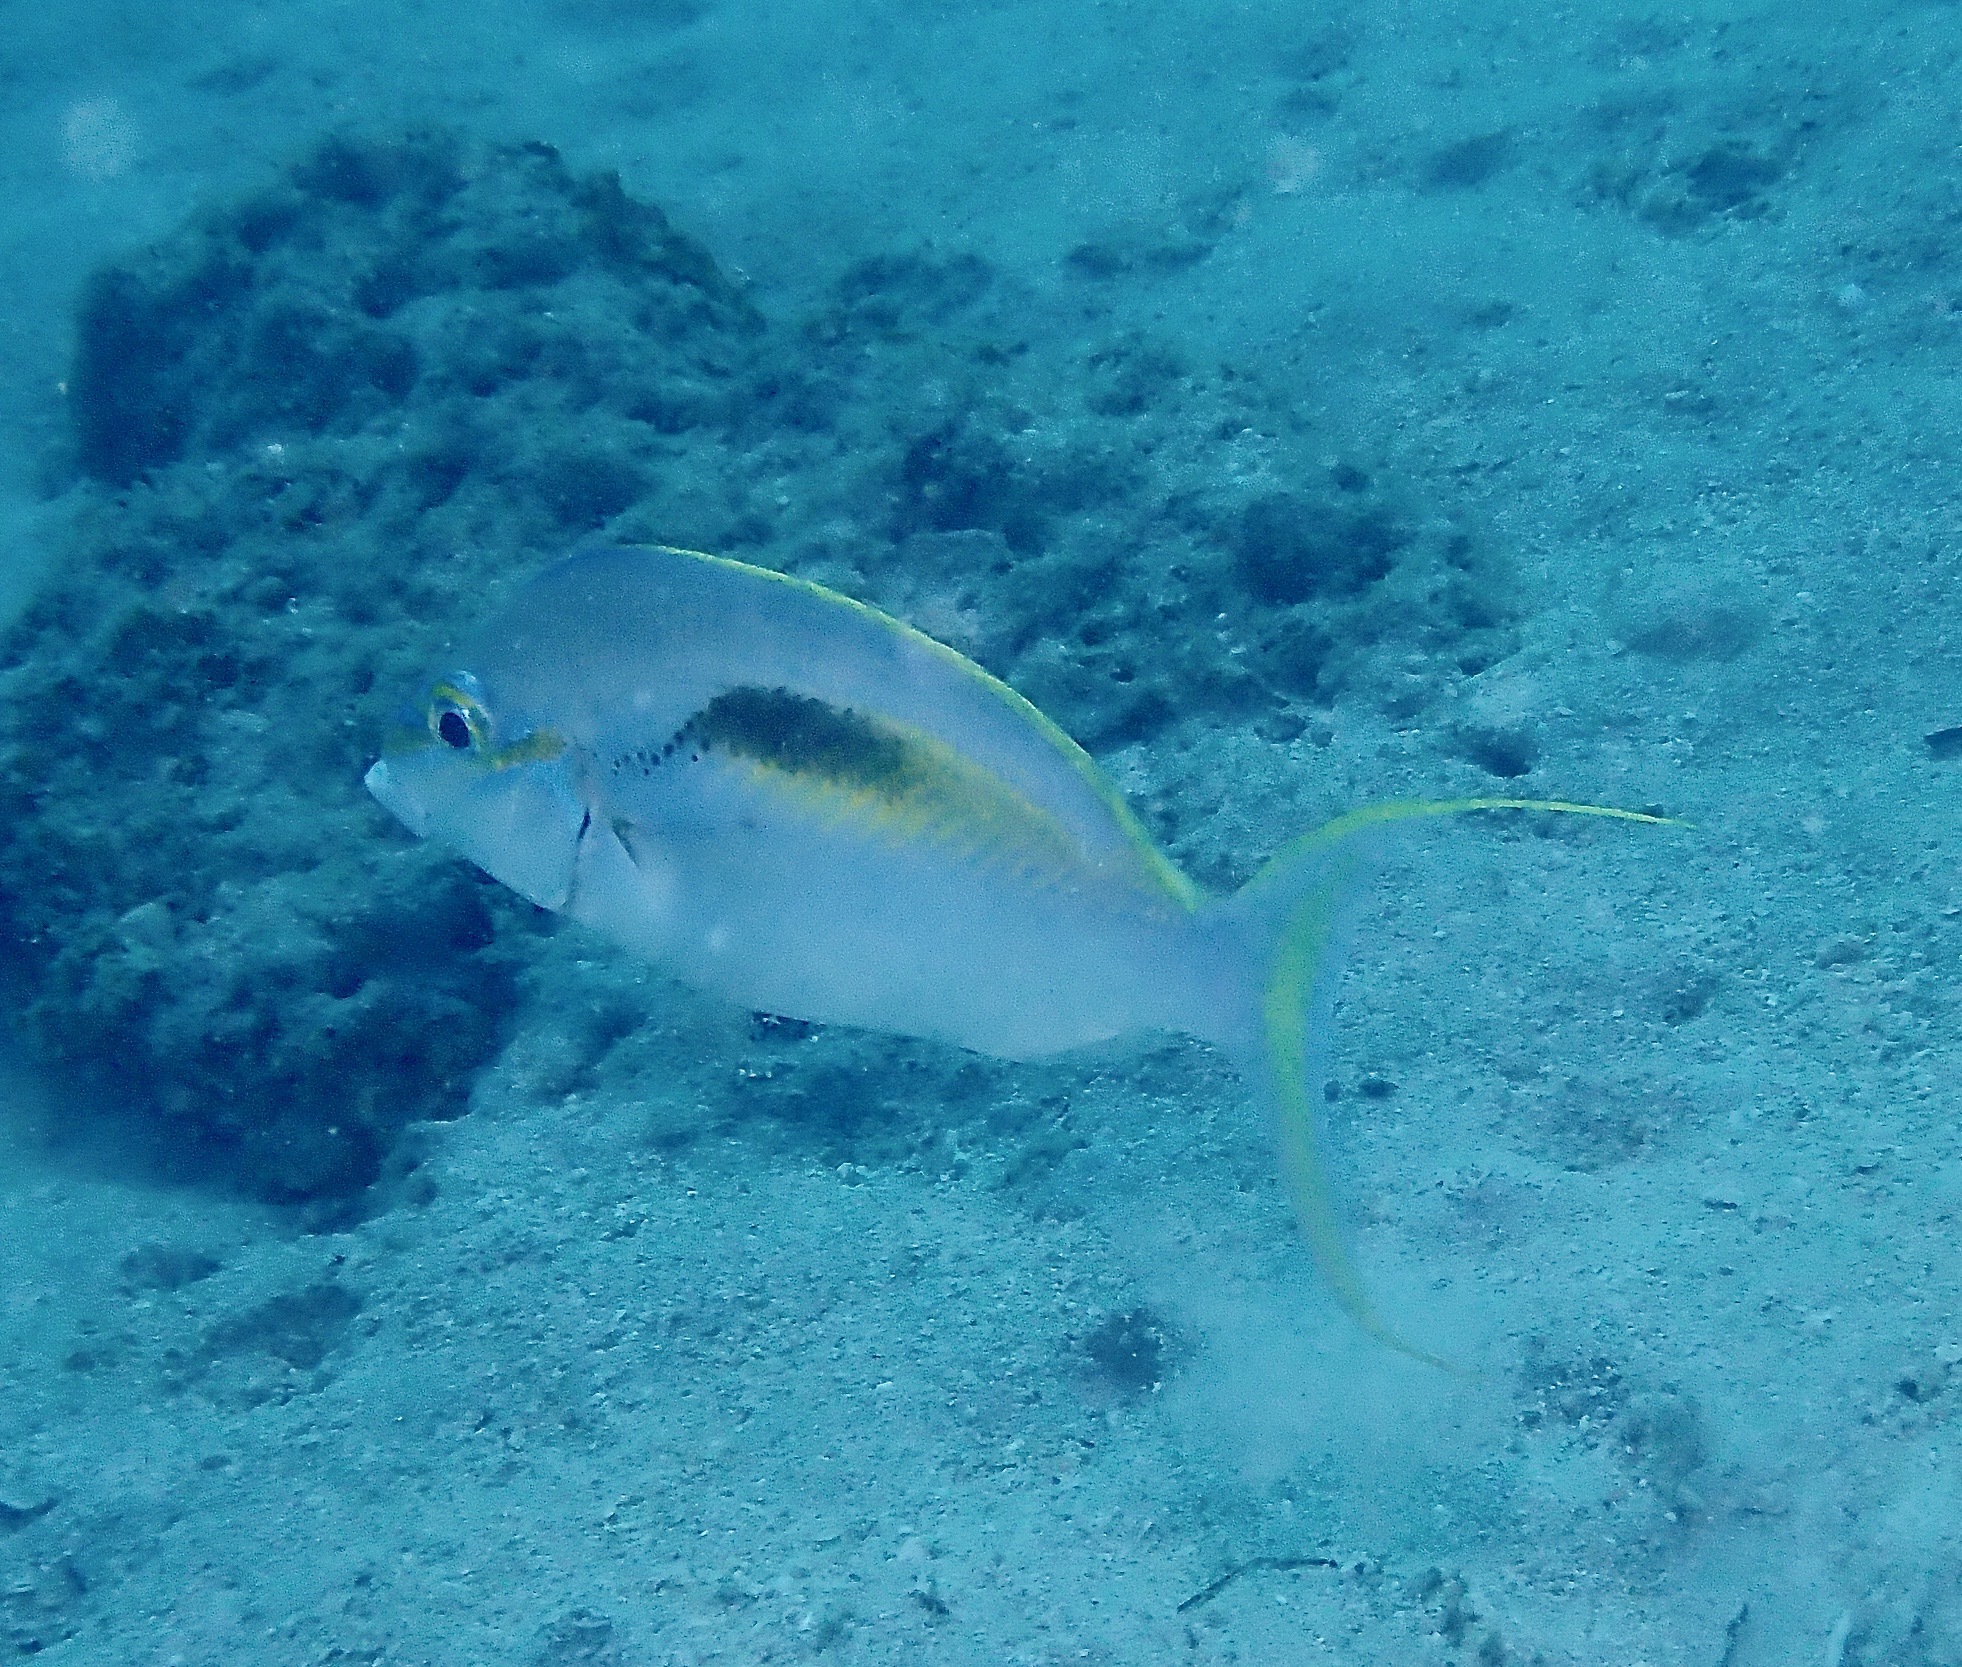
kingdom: Animalia
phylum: Chordata
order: Perciformes
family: Nemipteridae
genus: Scolopsis
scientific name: Scolopsis monogramma
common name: Monogrammed monocle bream
